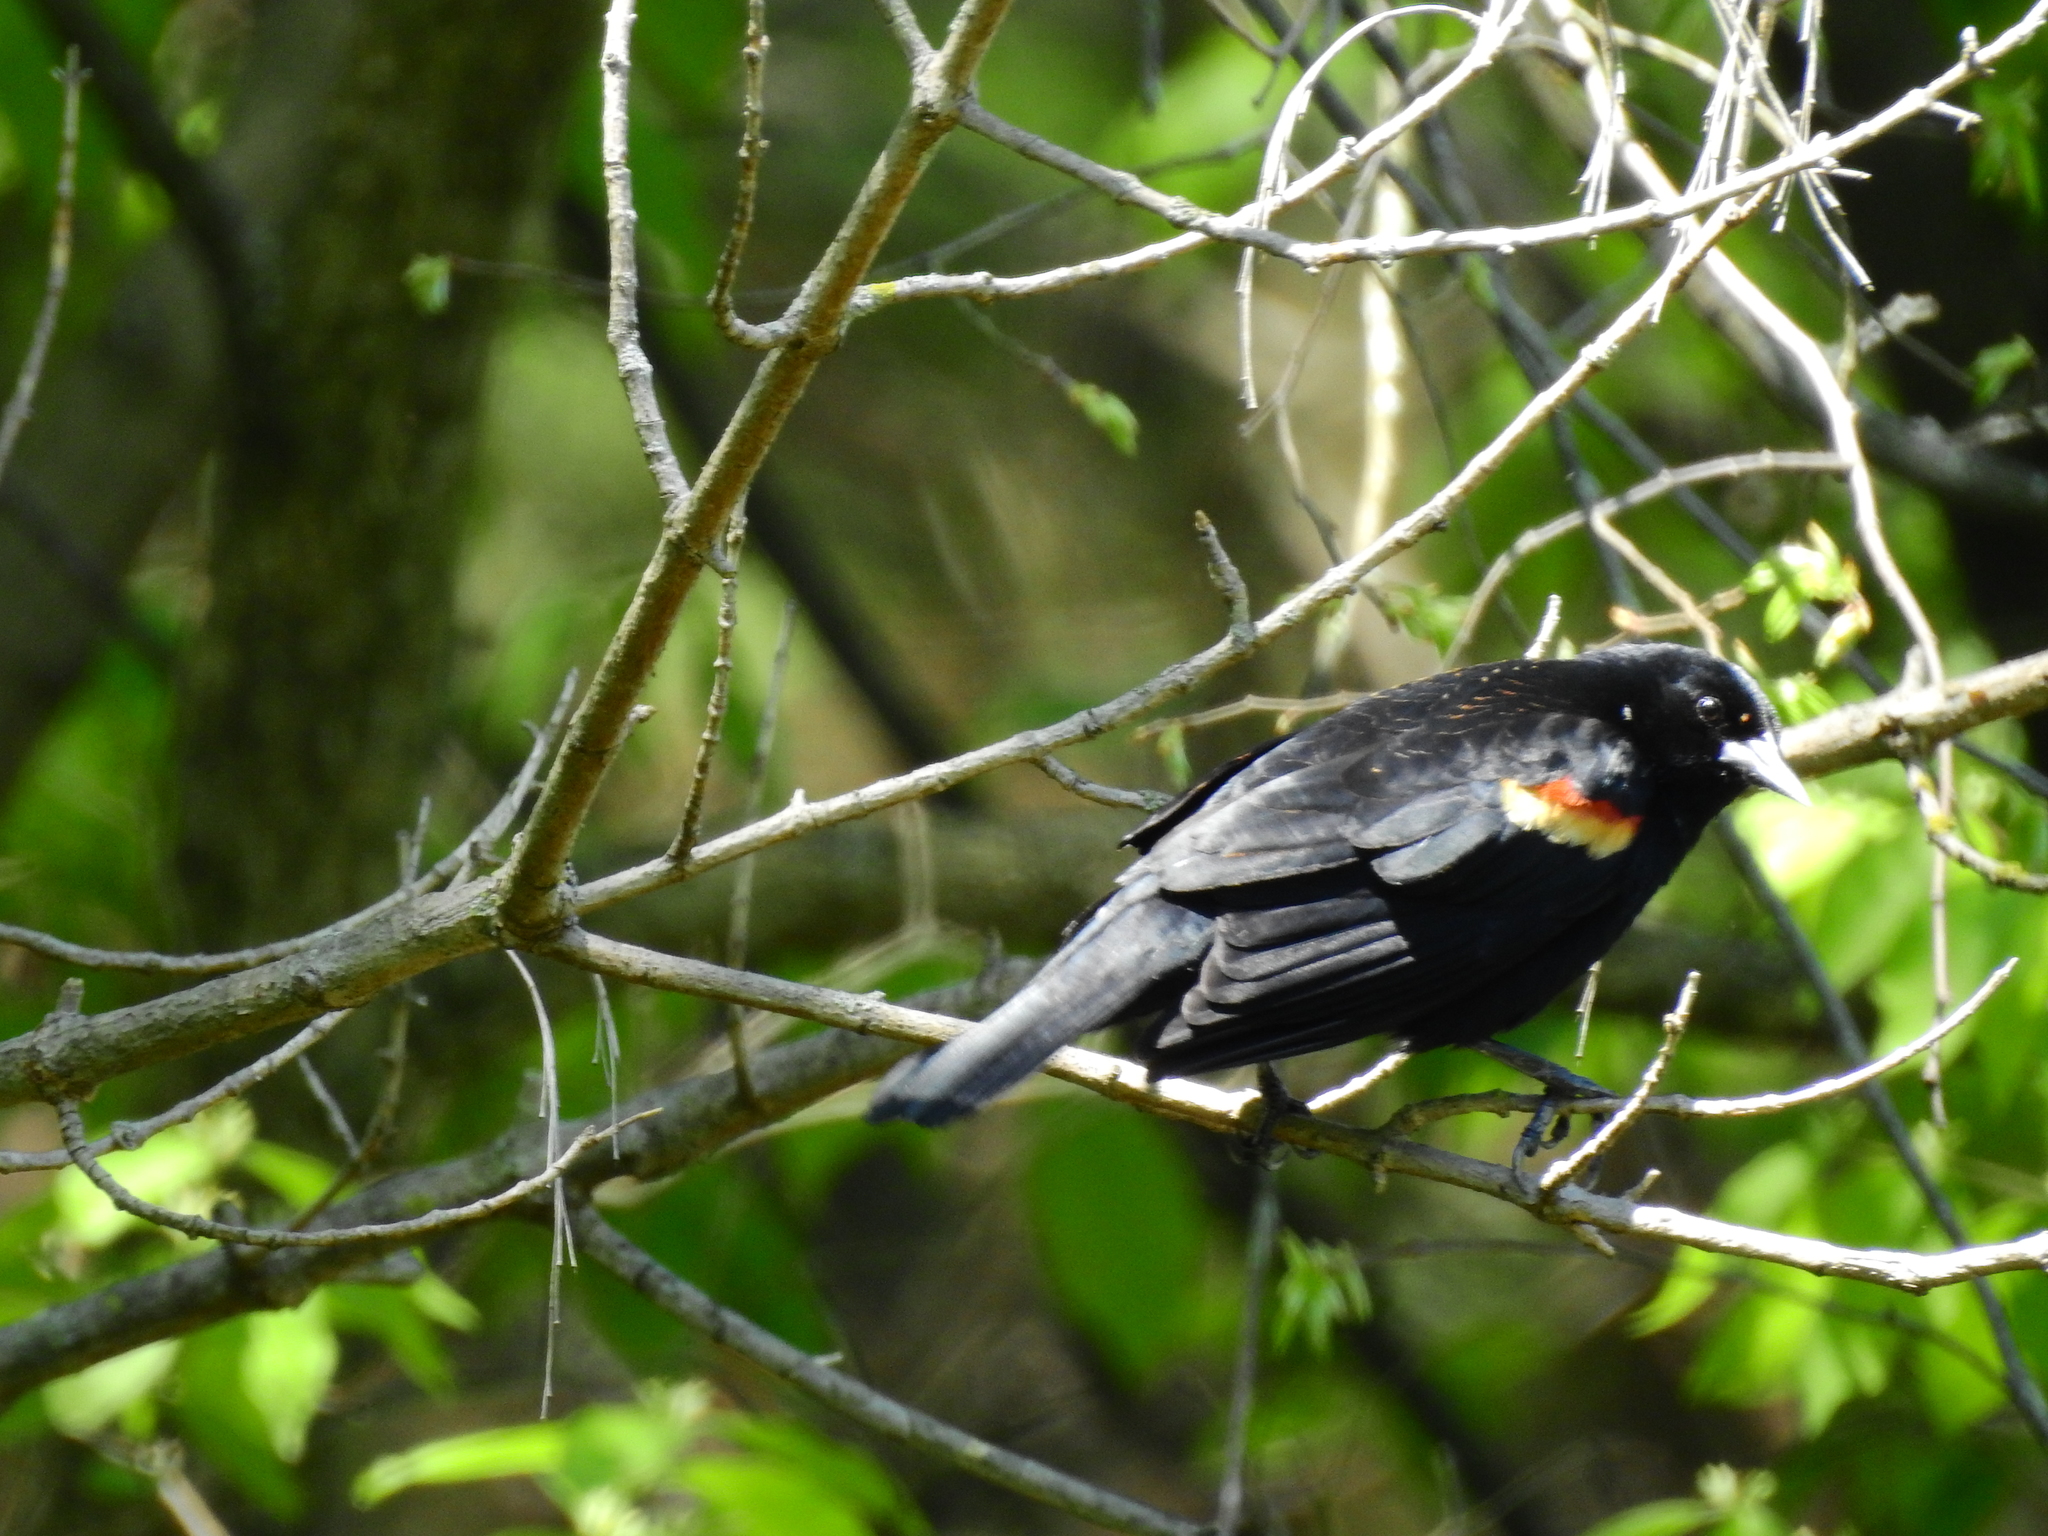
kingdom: Animalia
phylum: Chordata
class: Aves
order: Passeriformes
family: Icteridae
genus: Agelaius
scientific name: Agelaius phoeniceus
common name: Red-winged blackbird
